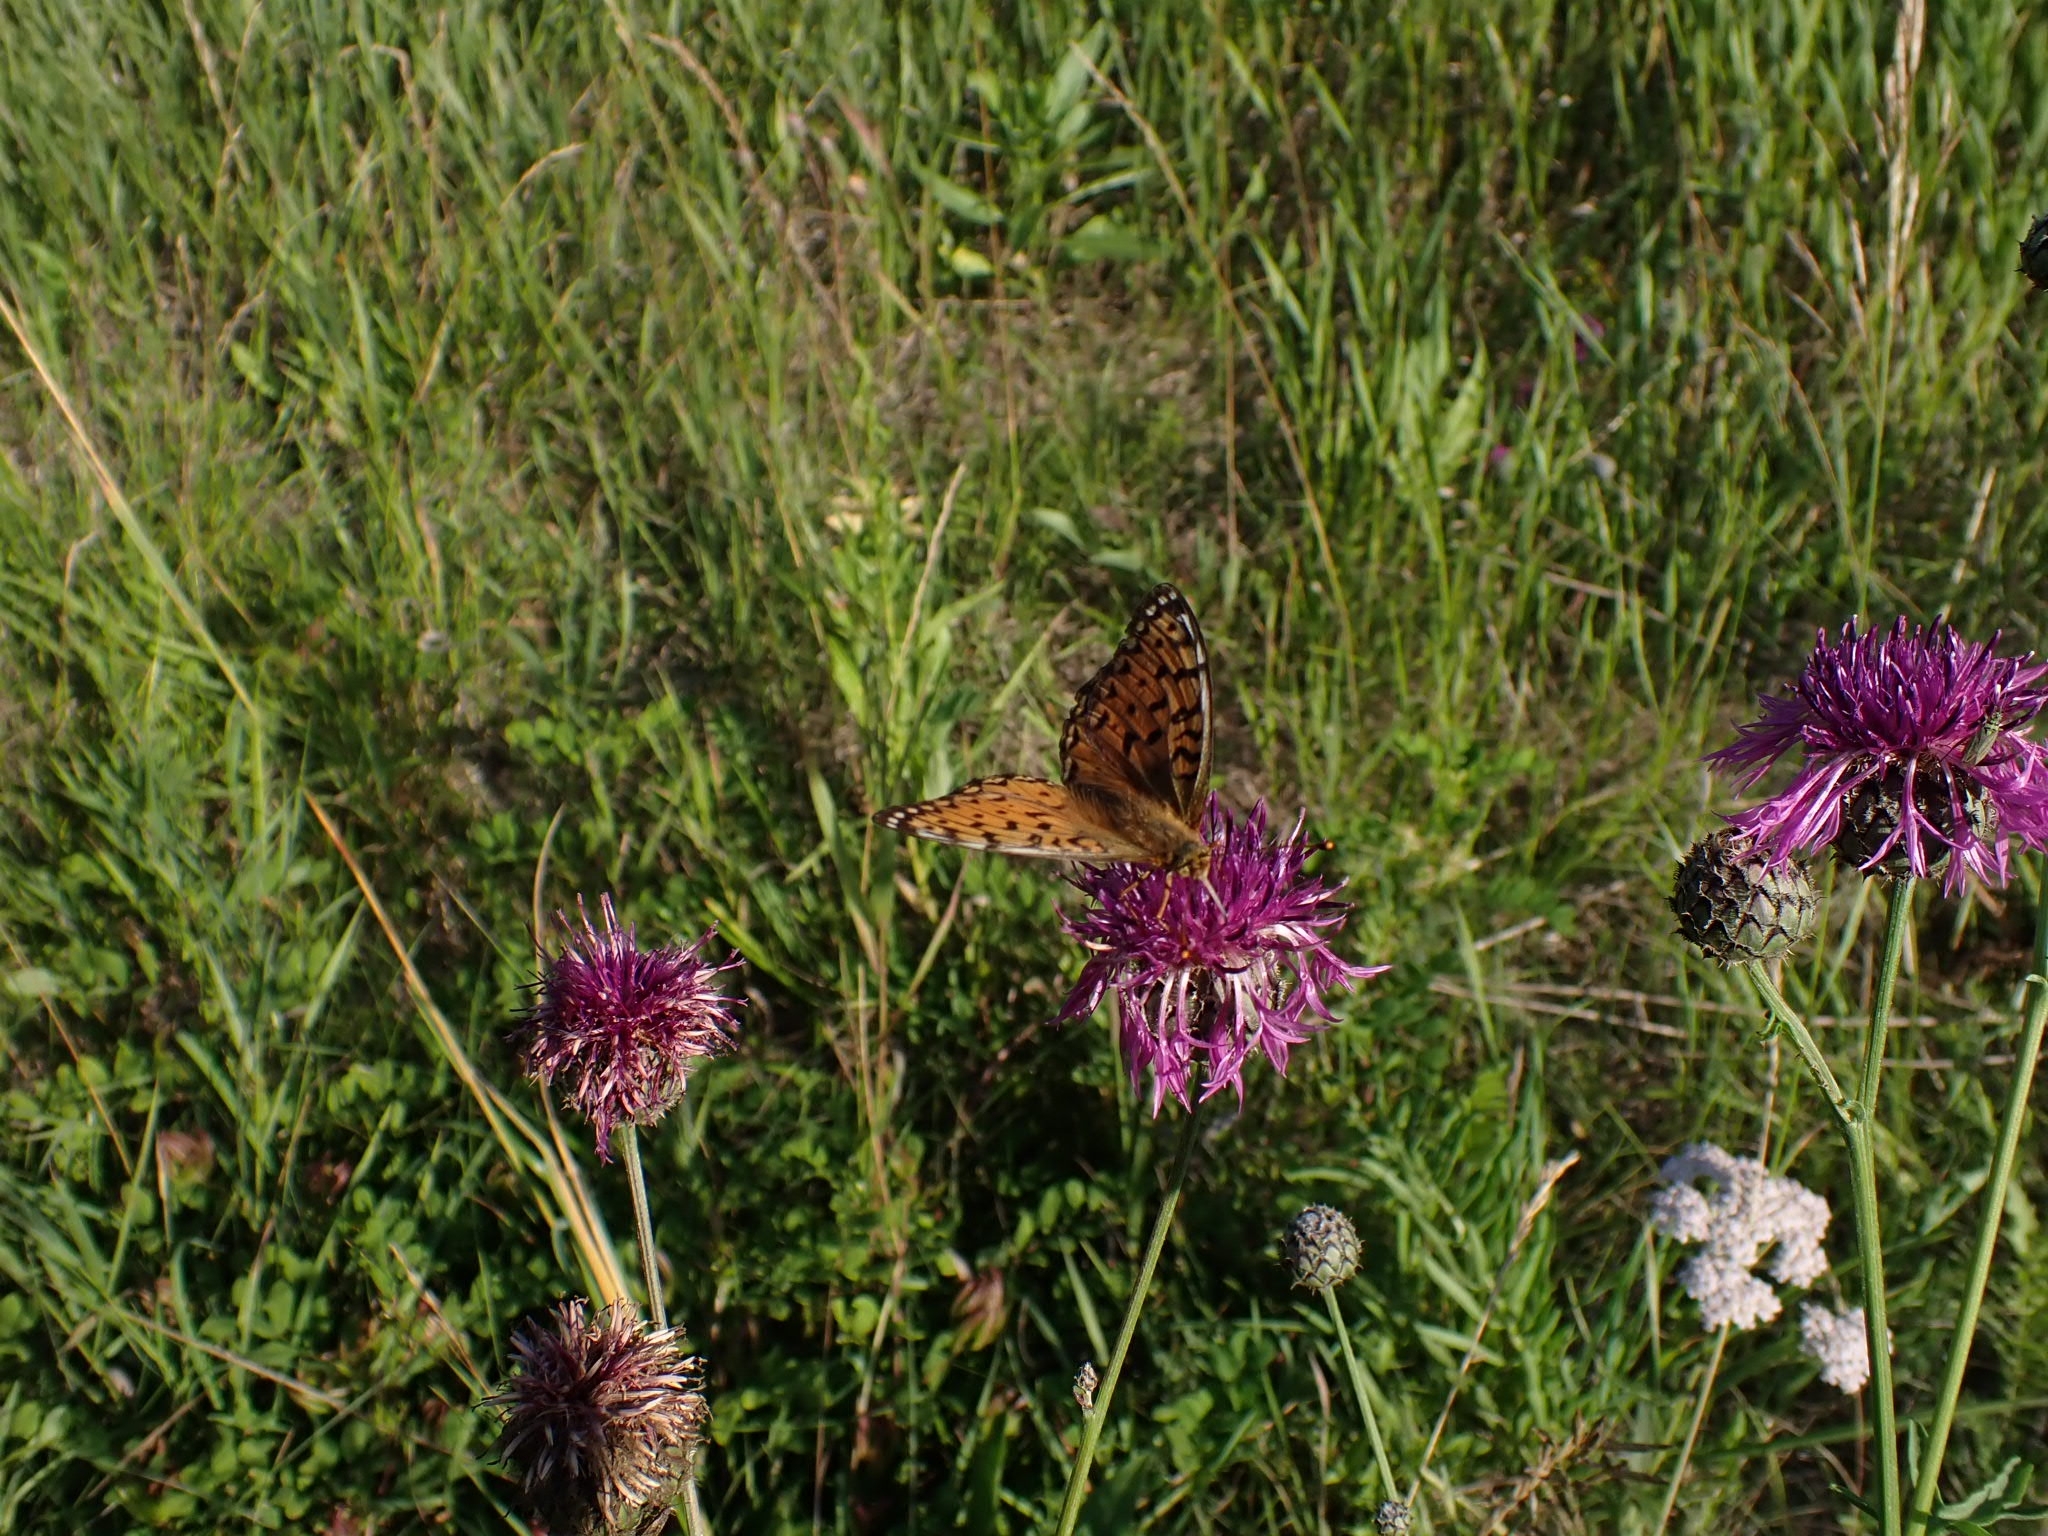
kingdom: Animalia
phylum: Arthropoda
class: Insecta
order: Lepidoptera
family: Nymphalidae
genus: Speyeria
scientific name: Speyeria aglaja
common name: Dark green fritillary
